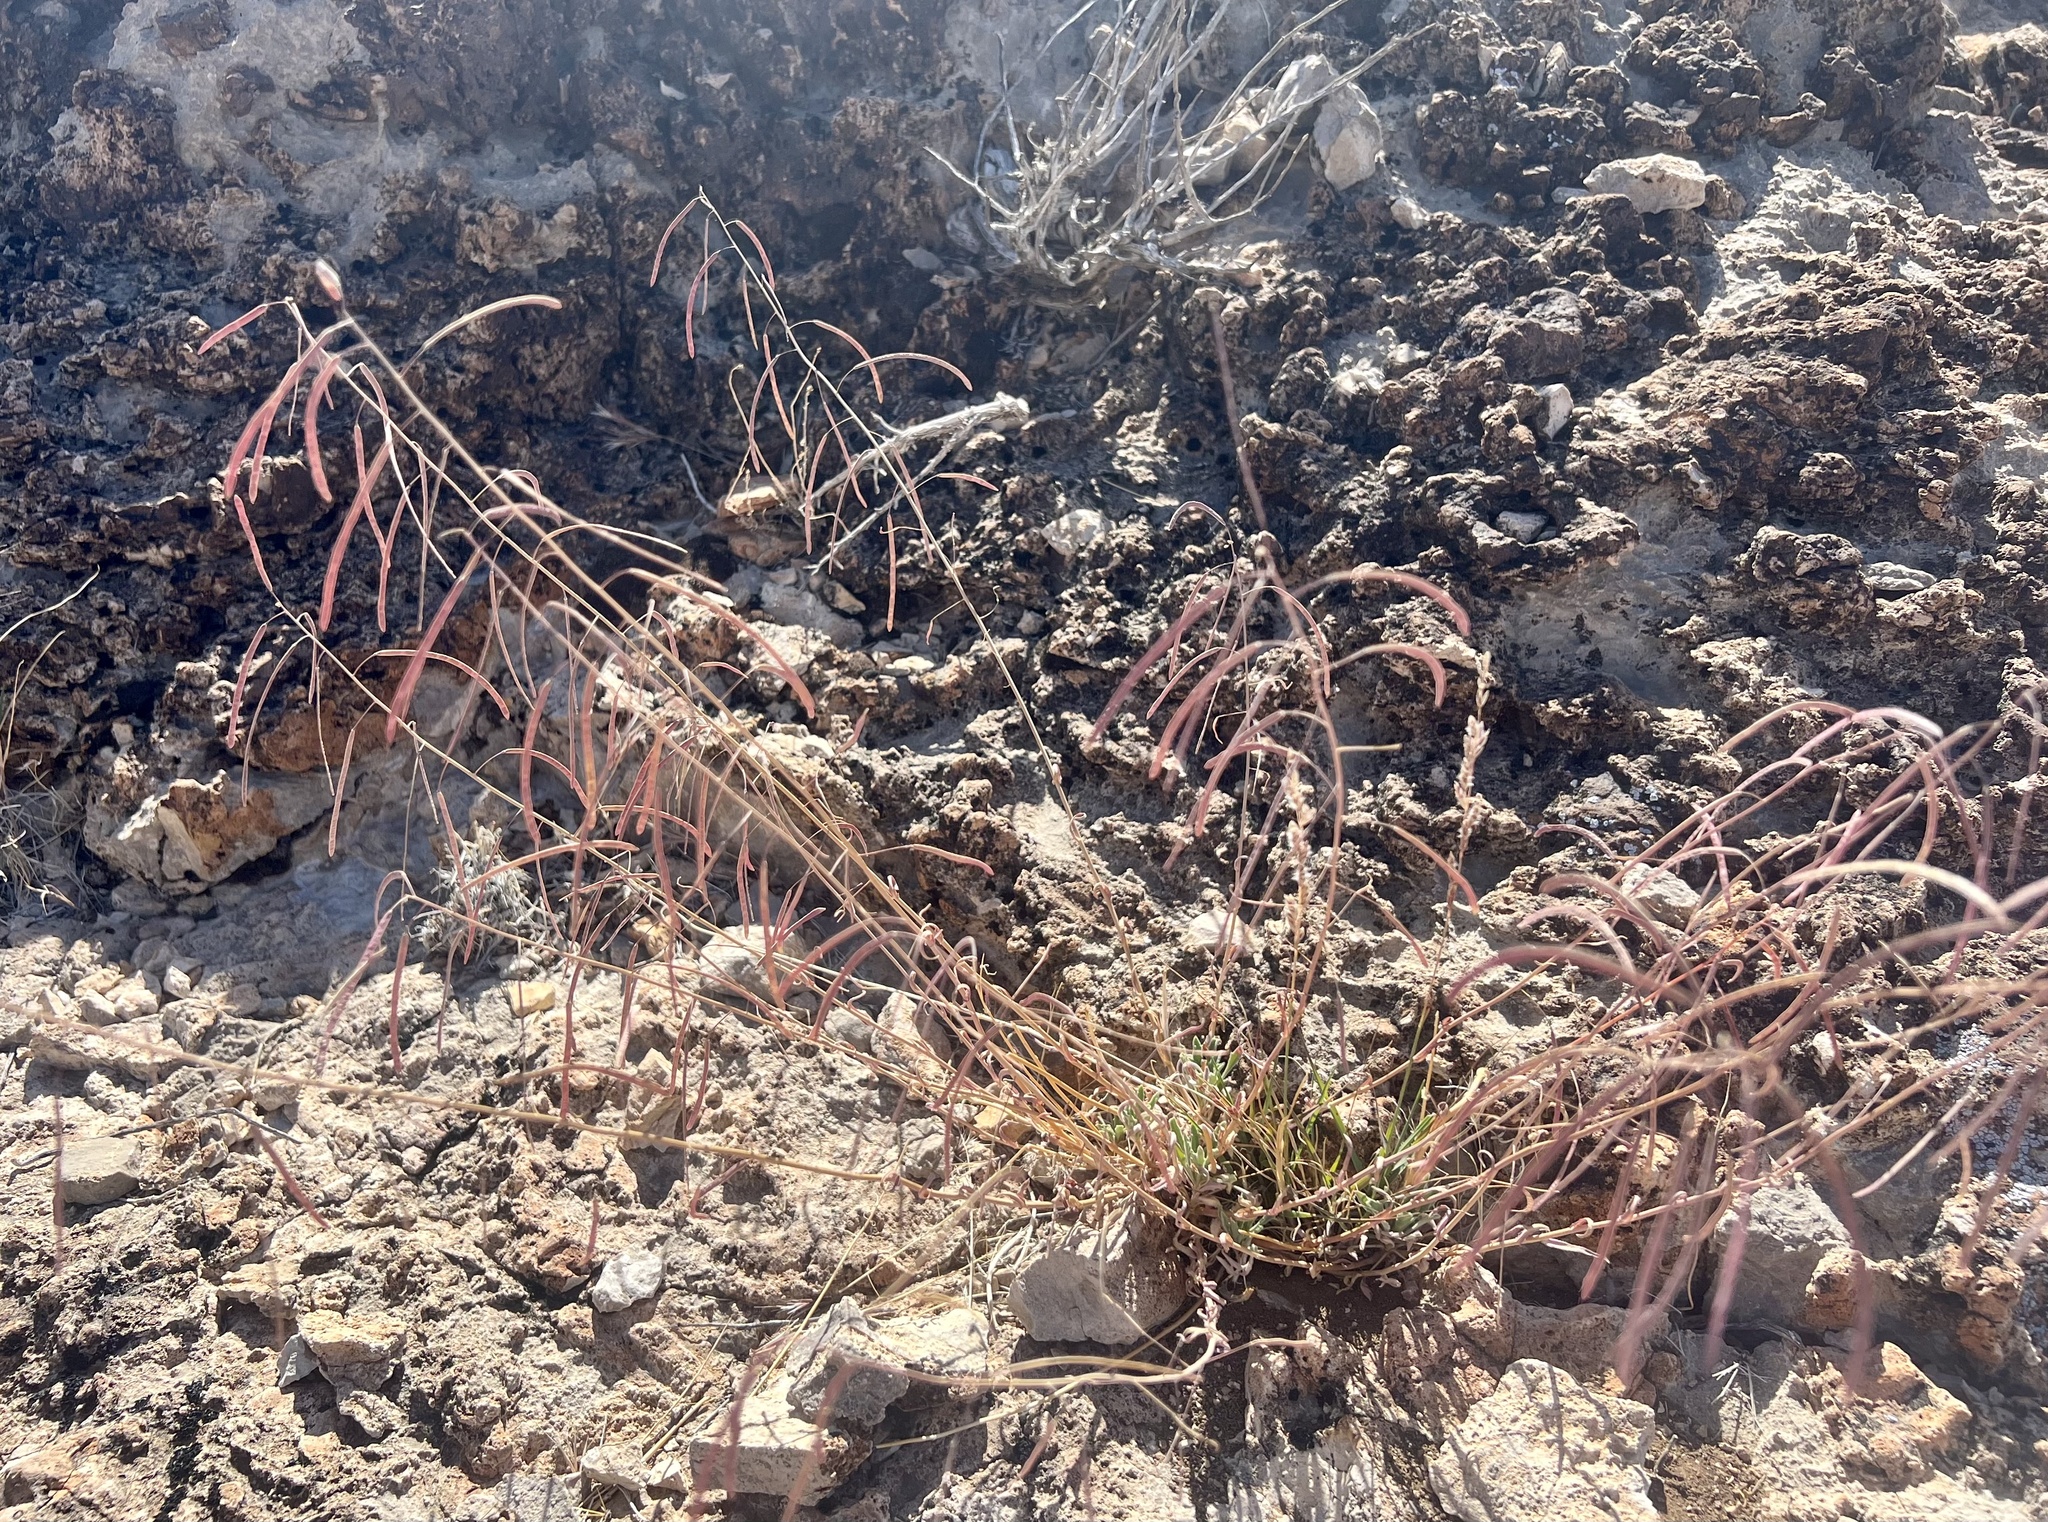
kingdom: Plantae
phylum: Tracheophyta
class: Magnoliopsida
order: Brassicales
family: Brassicaceae
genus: Streptanthus
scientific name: Streptanthus longirostris
